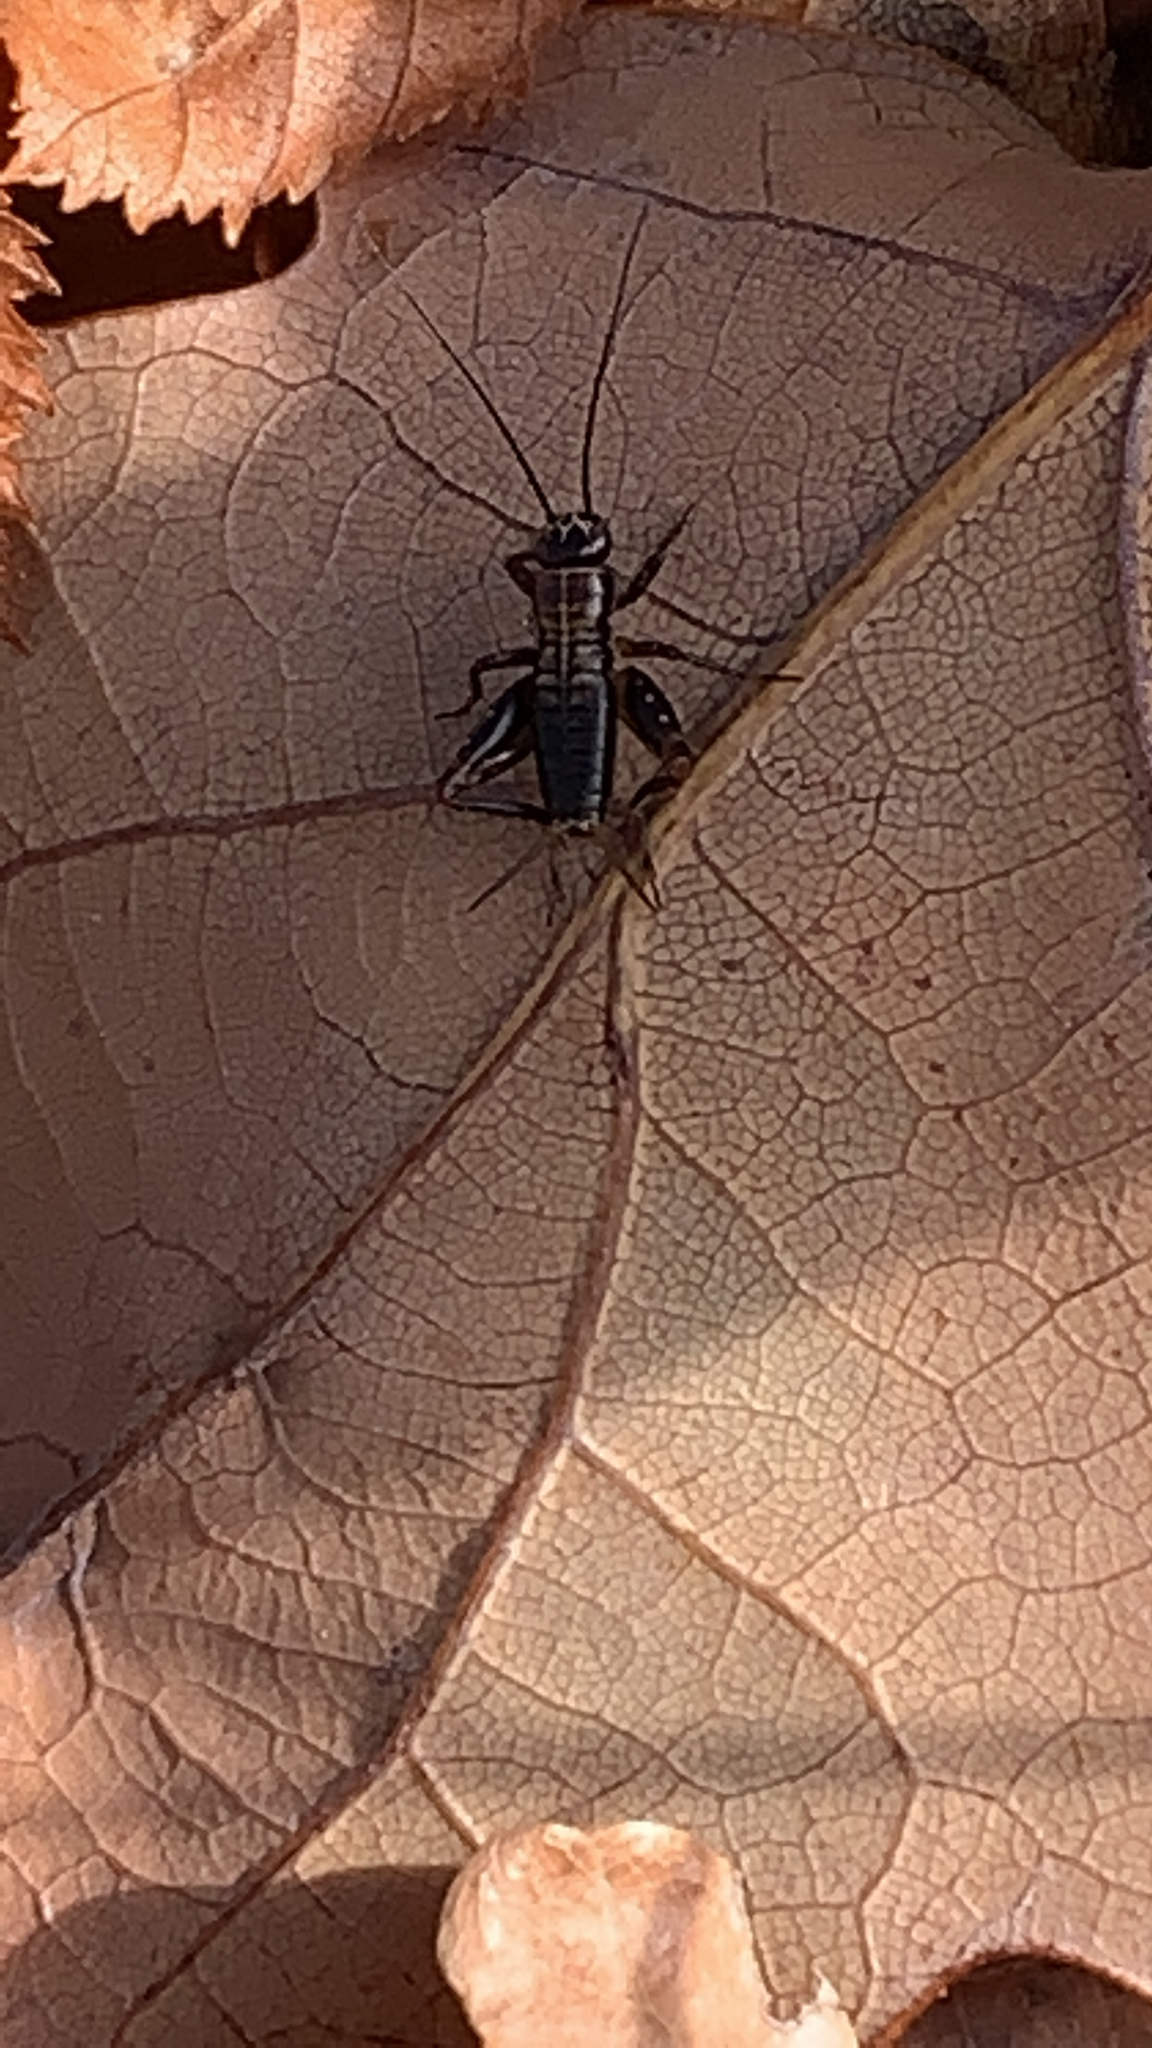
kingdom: Animalia
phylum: Arthropoda
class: Insecta
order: Orthoptera
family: Trigonidiidae
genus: Nemobius
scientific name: Nemobius sylvestris
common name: Wood-cricket
